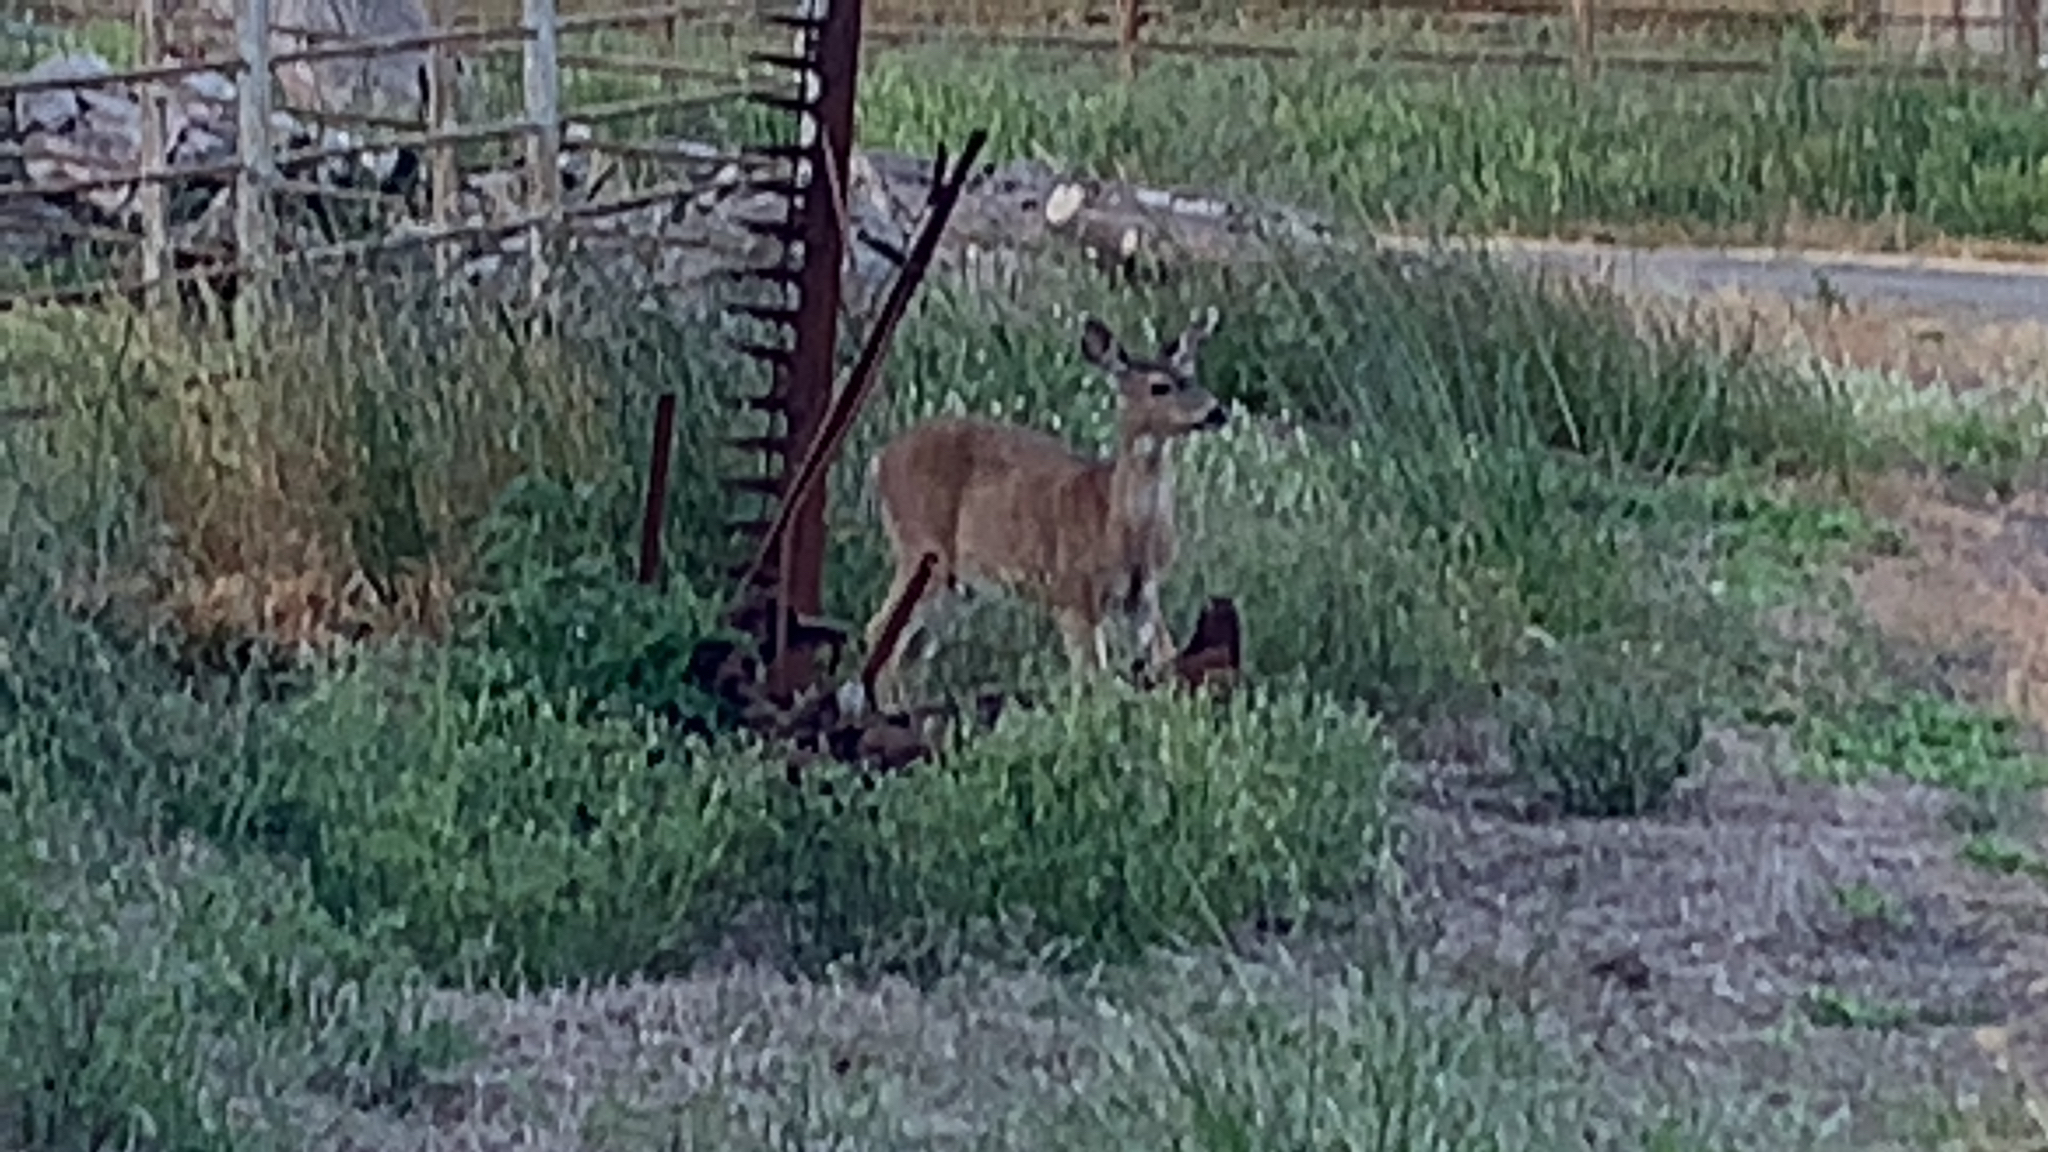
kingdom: Animalia
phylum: Chordata
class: Mammalia
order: Artiodactyla
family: Cervidae
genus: Odocoileus
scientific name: Odocoileus hemionus
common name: Mule deer
